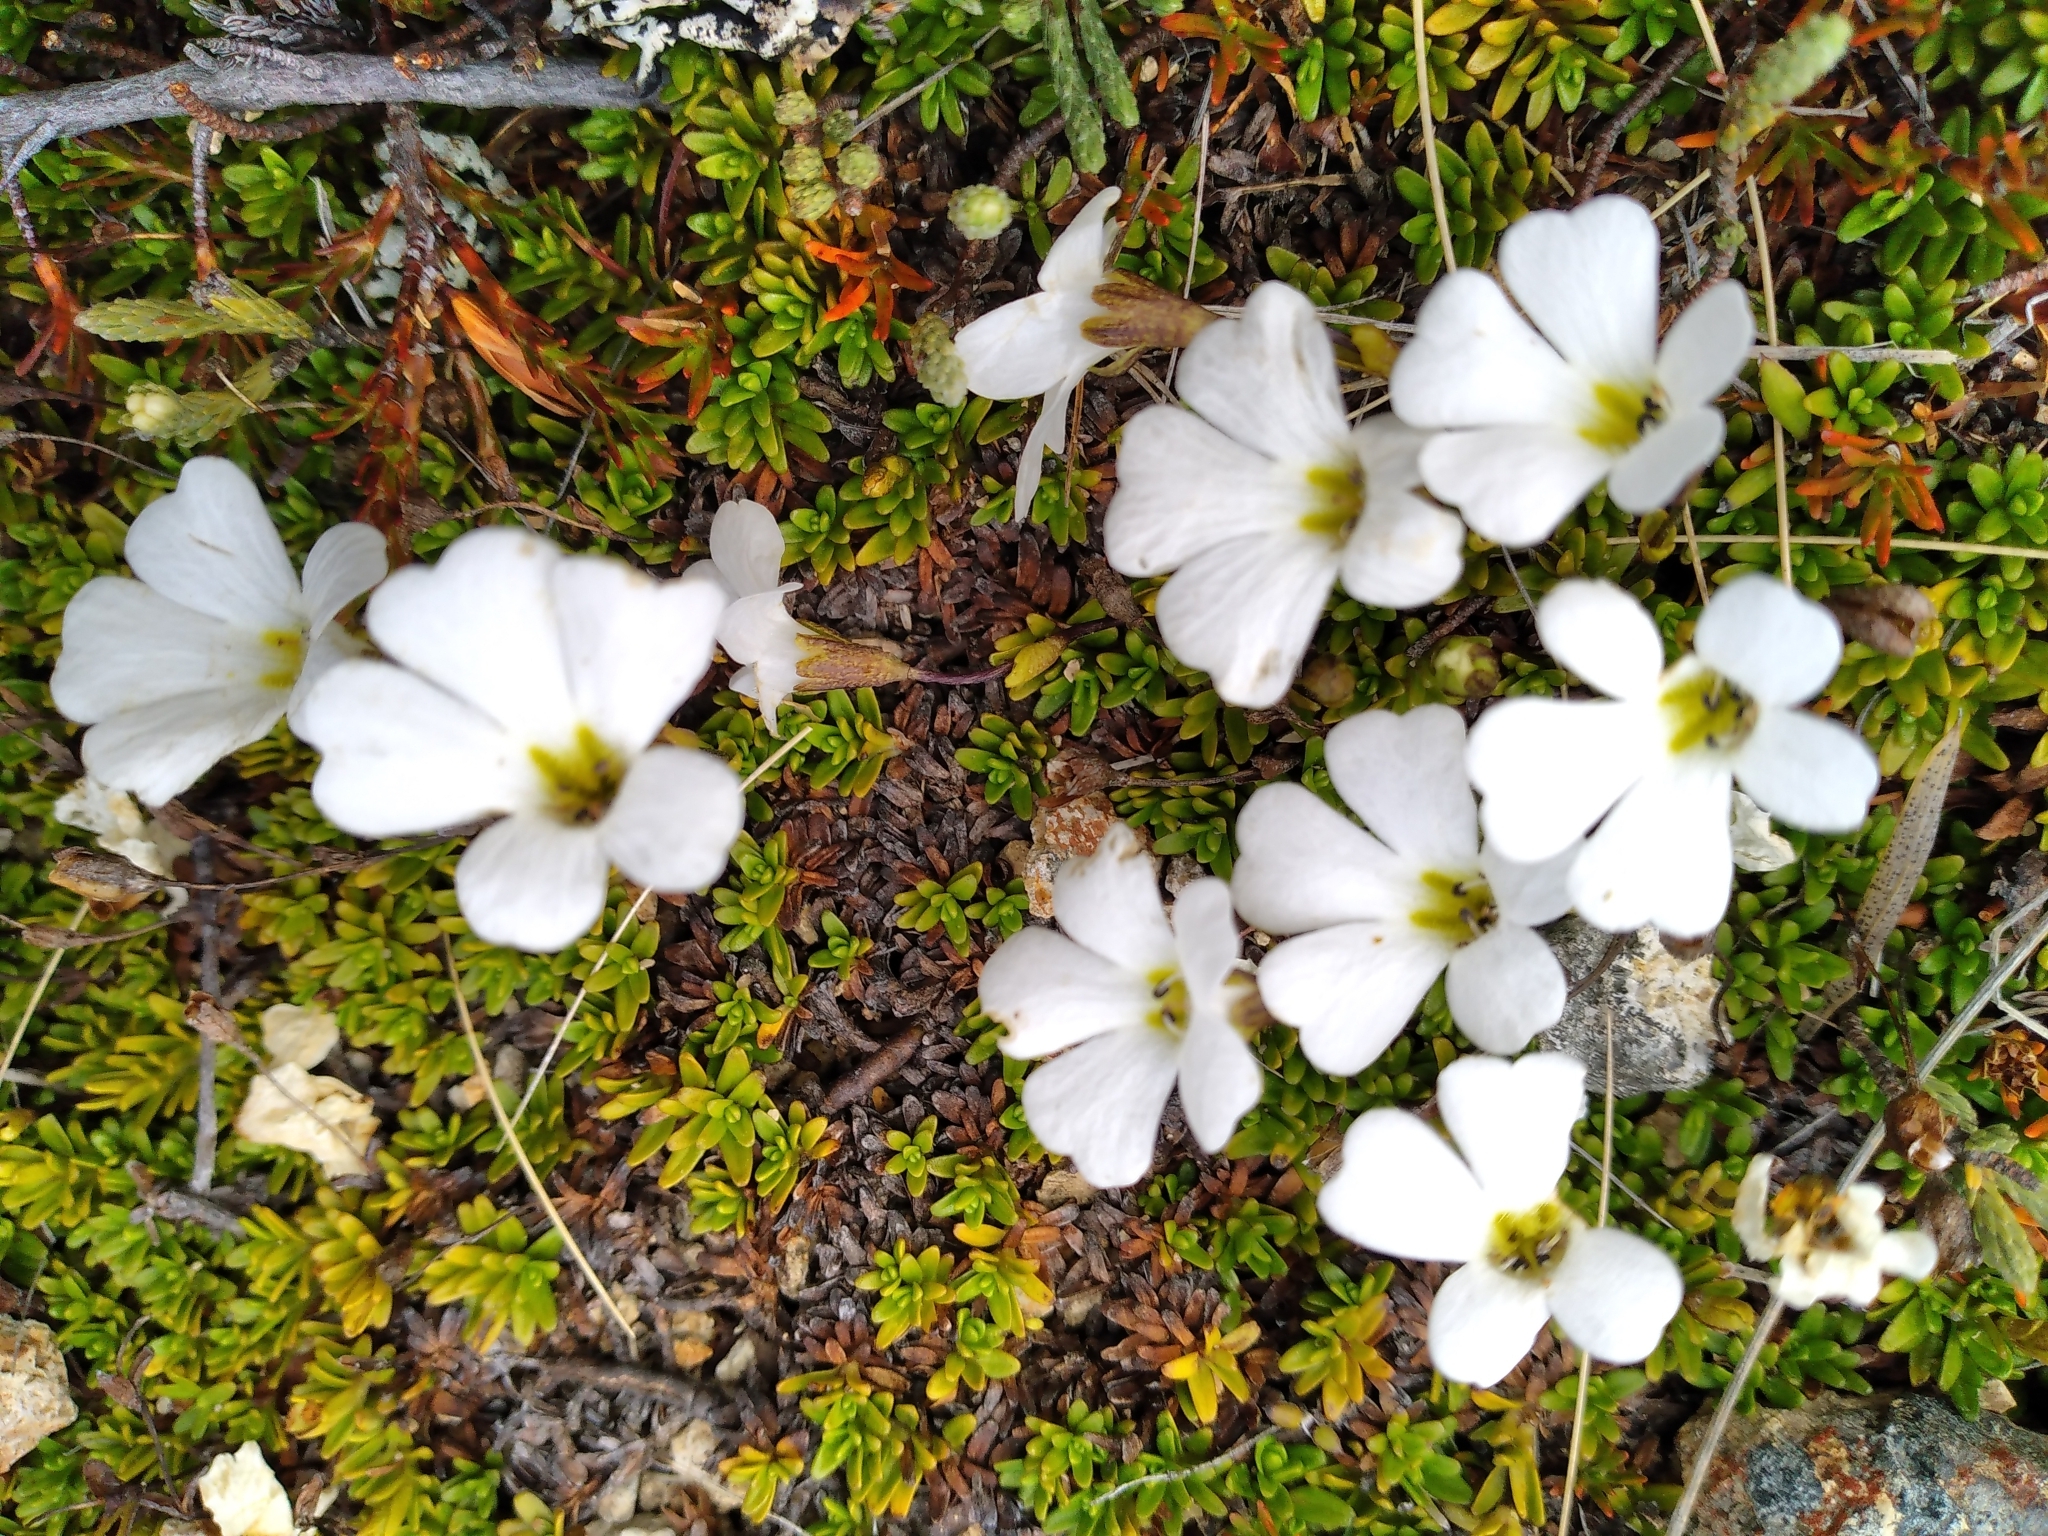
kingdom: Plantae
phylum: Tracheophyta
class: Magnoliopsida
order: Lamiales
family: Plantaginaceae
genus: Ourisia
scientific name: Ourisia caespitosa
